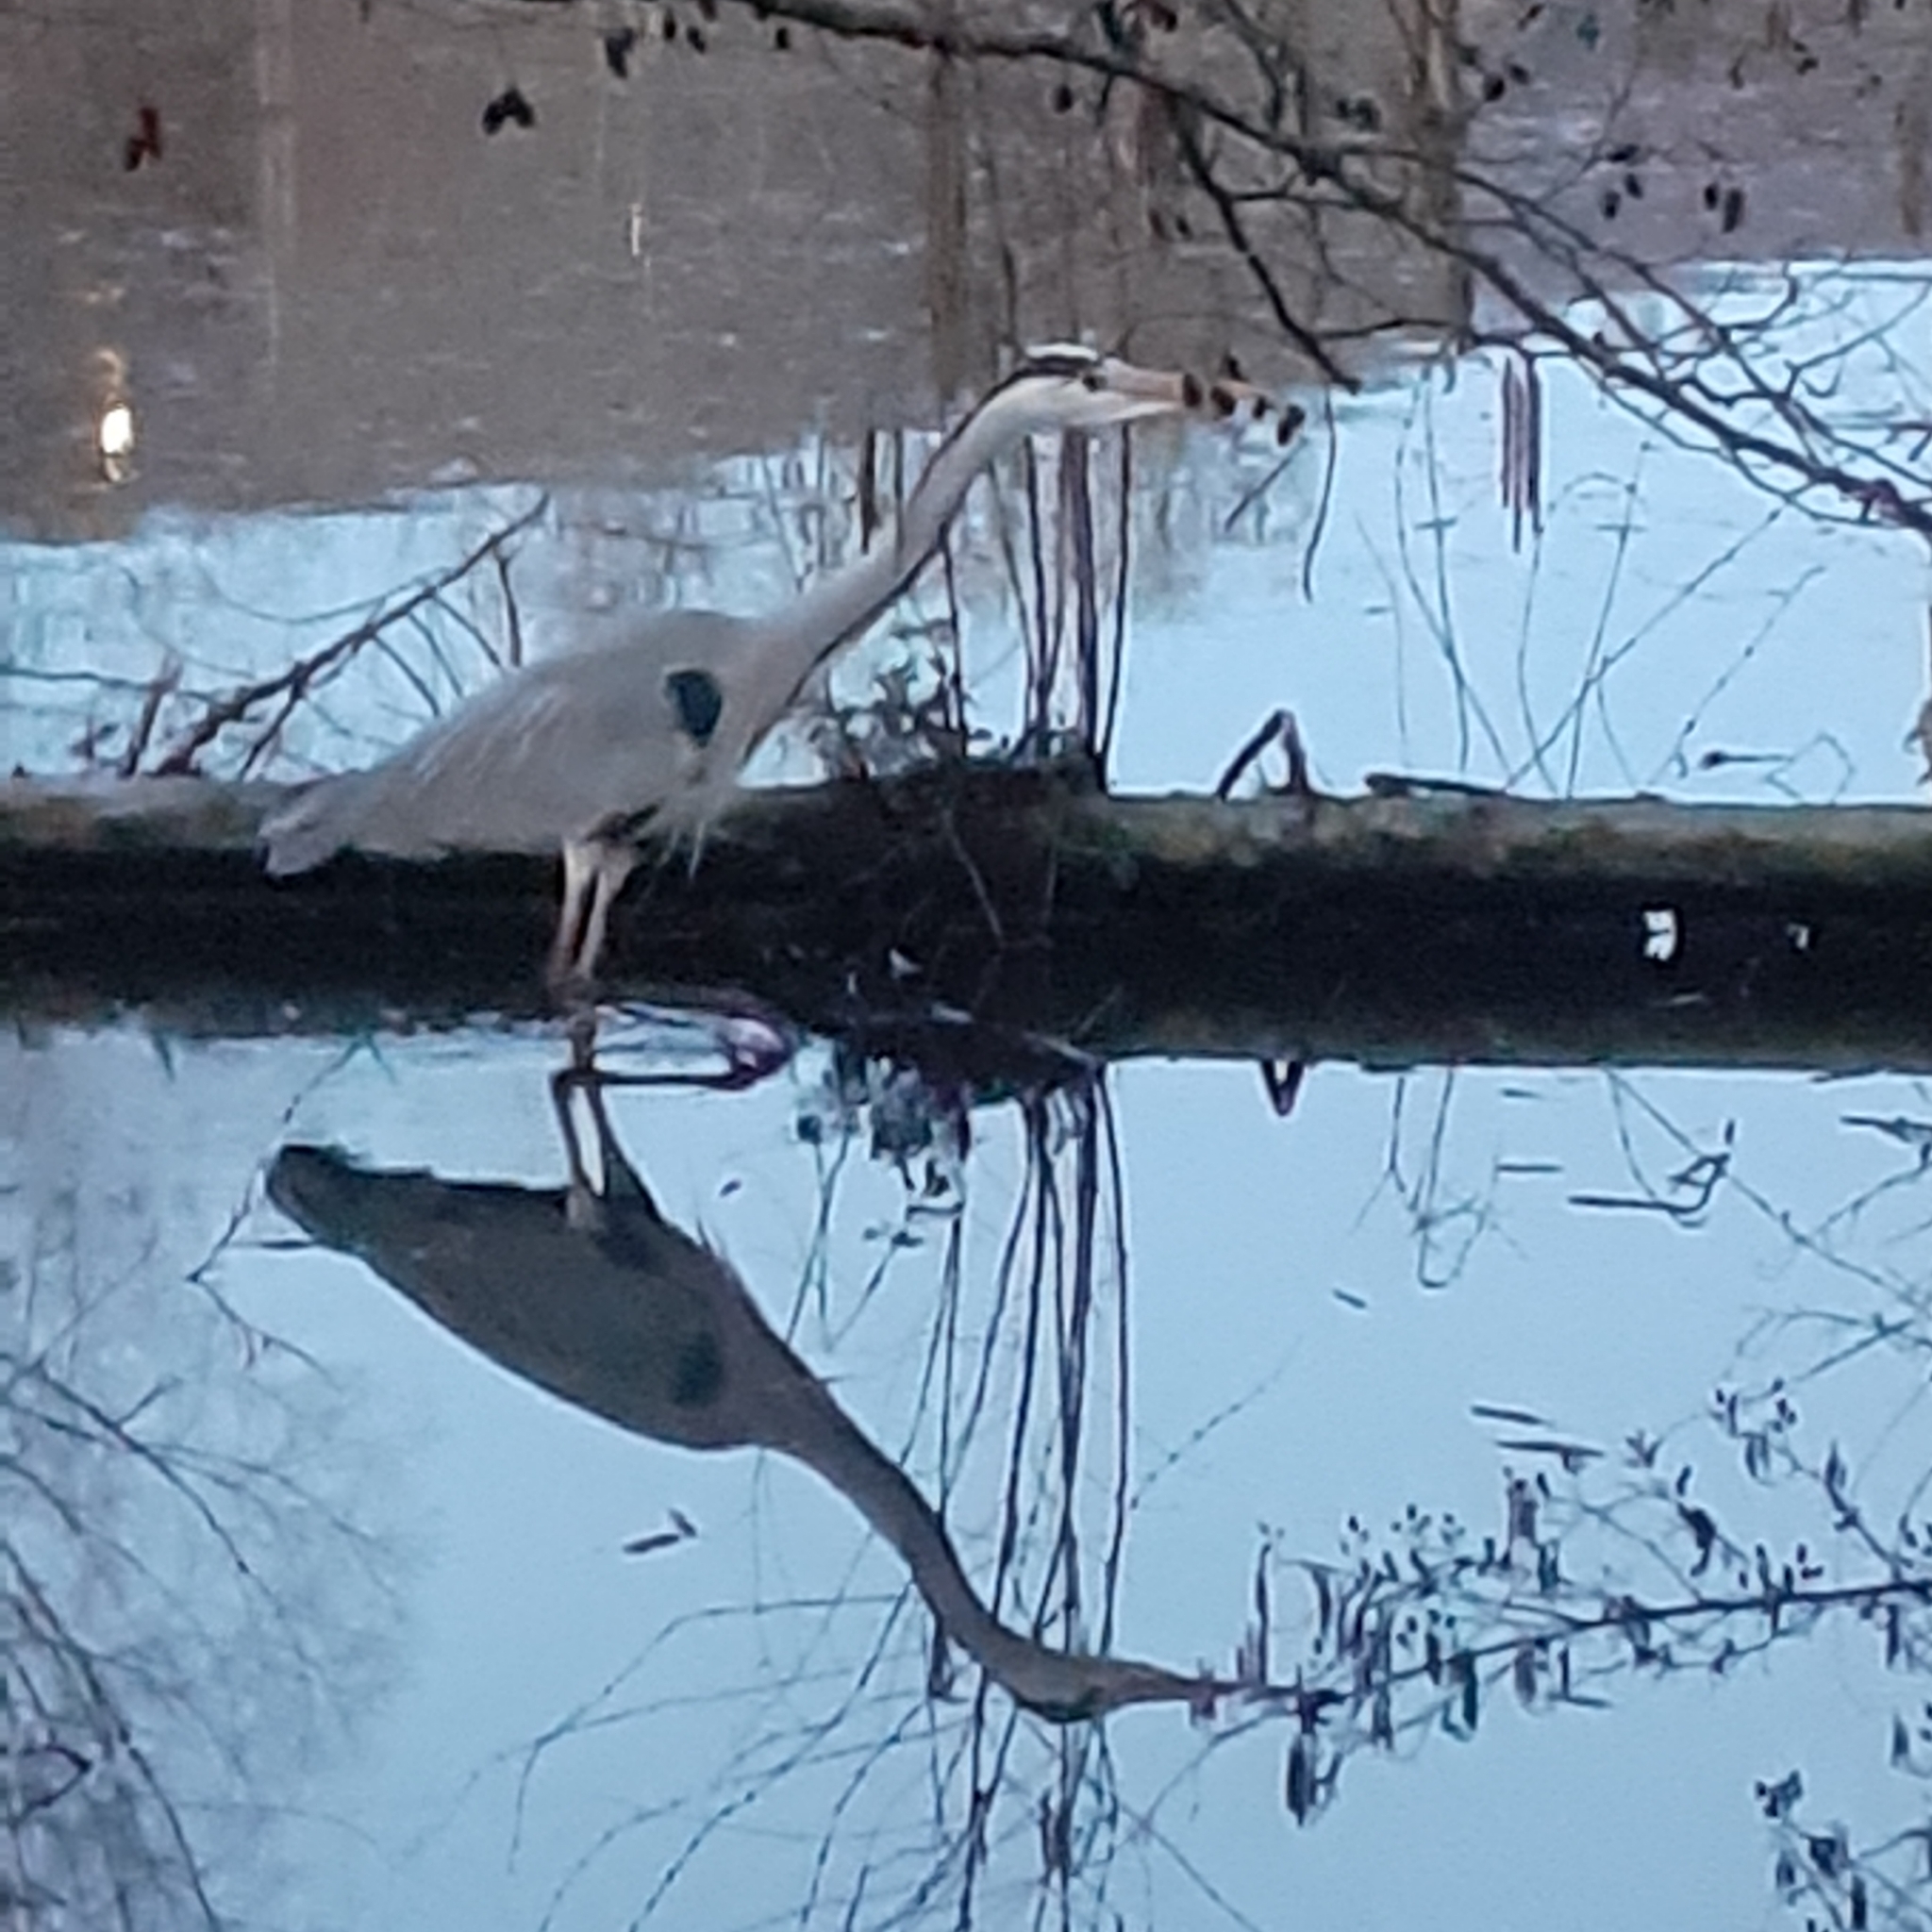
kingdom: Animalia
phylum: Chordata
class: Aves
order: Pelecaniformes
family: Ardeidae
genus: Ardea
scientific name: Ardea cinerea
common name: Grey heron
